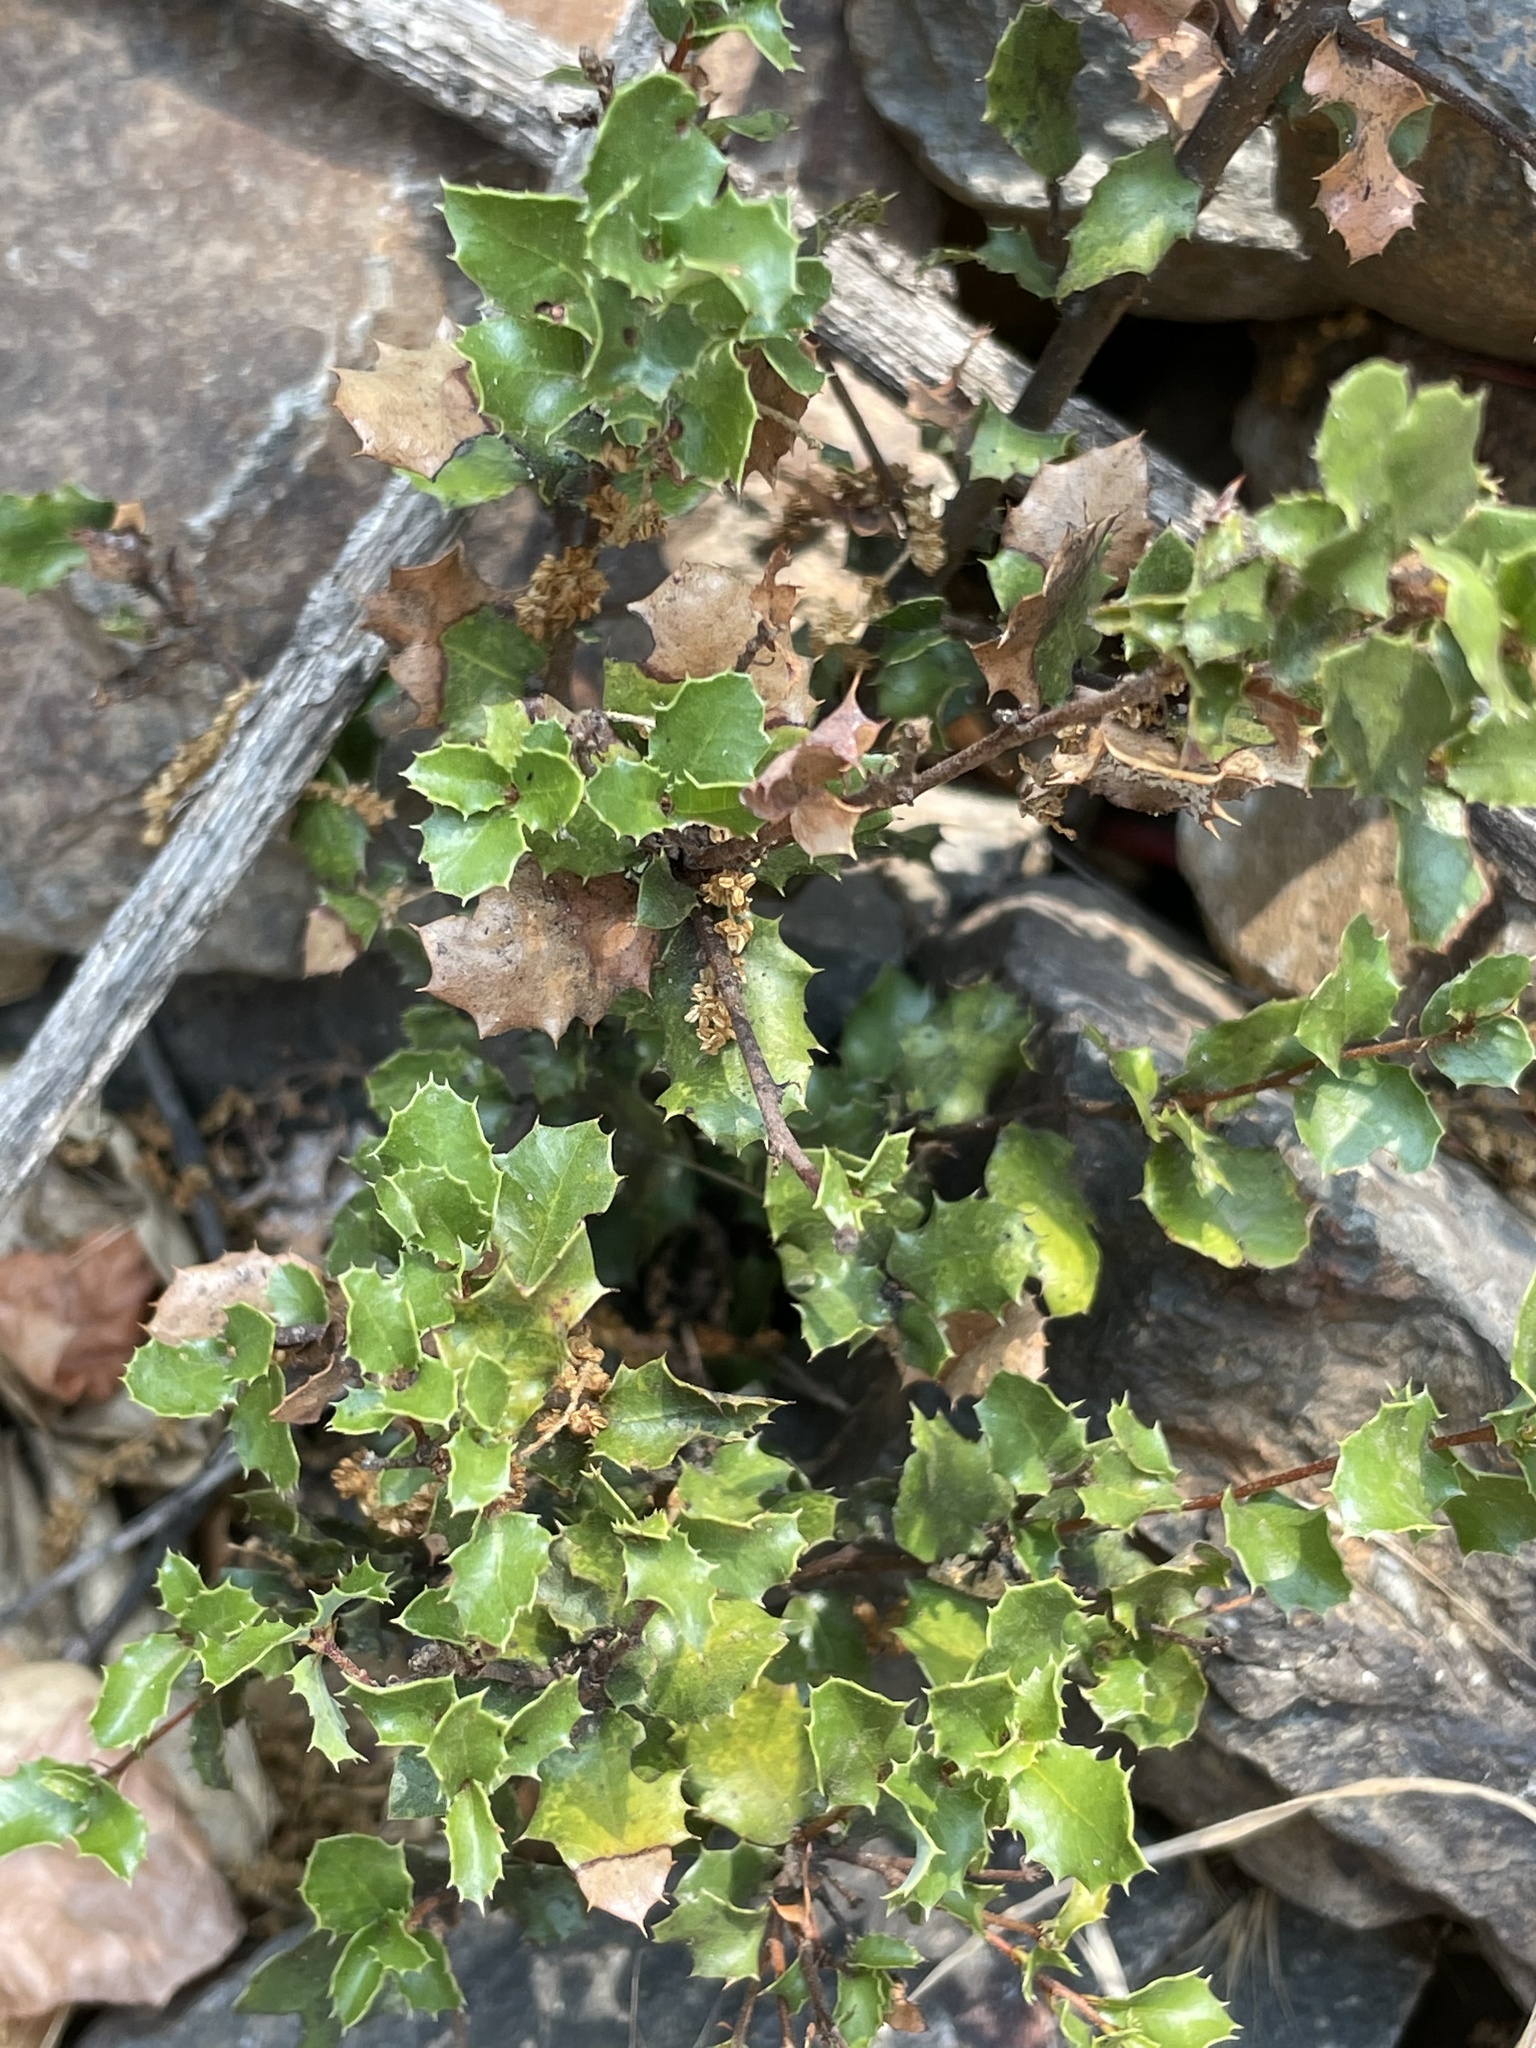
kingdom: Plantae
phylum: Tracheophyta
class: Magnoliopsida
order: Fagales
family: Fagaceae
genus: Quercus
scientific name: Quercus dumosa
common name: Coastal sage scrub oak
